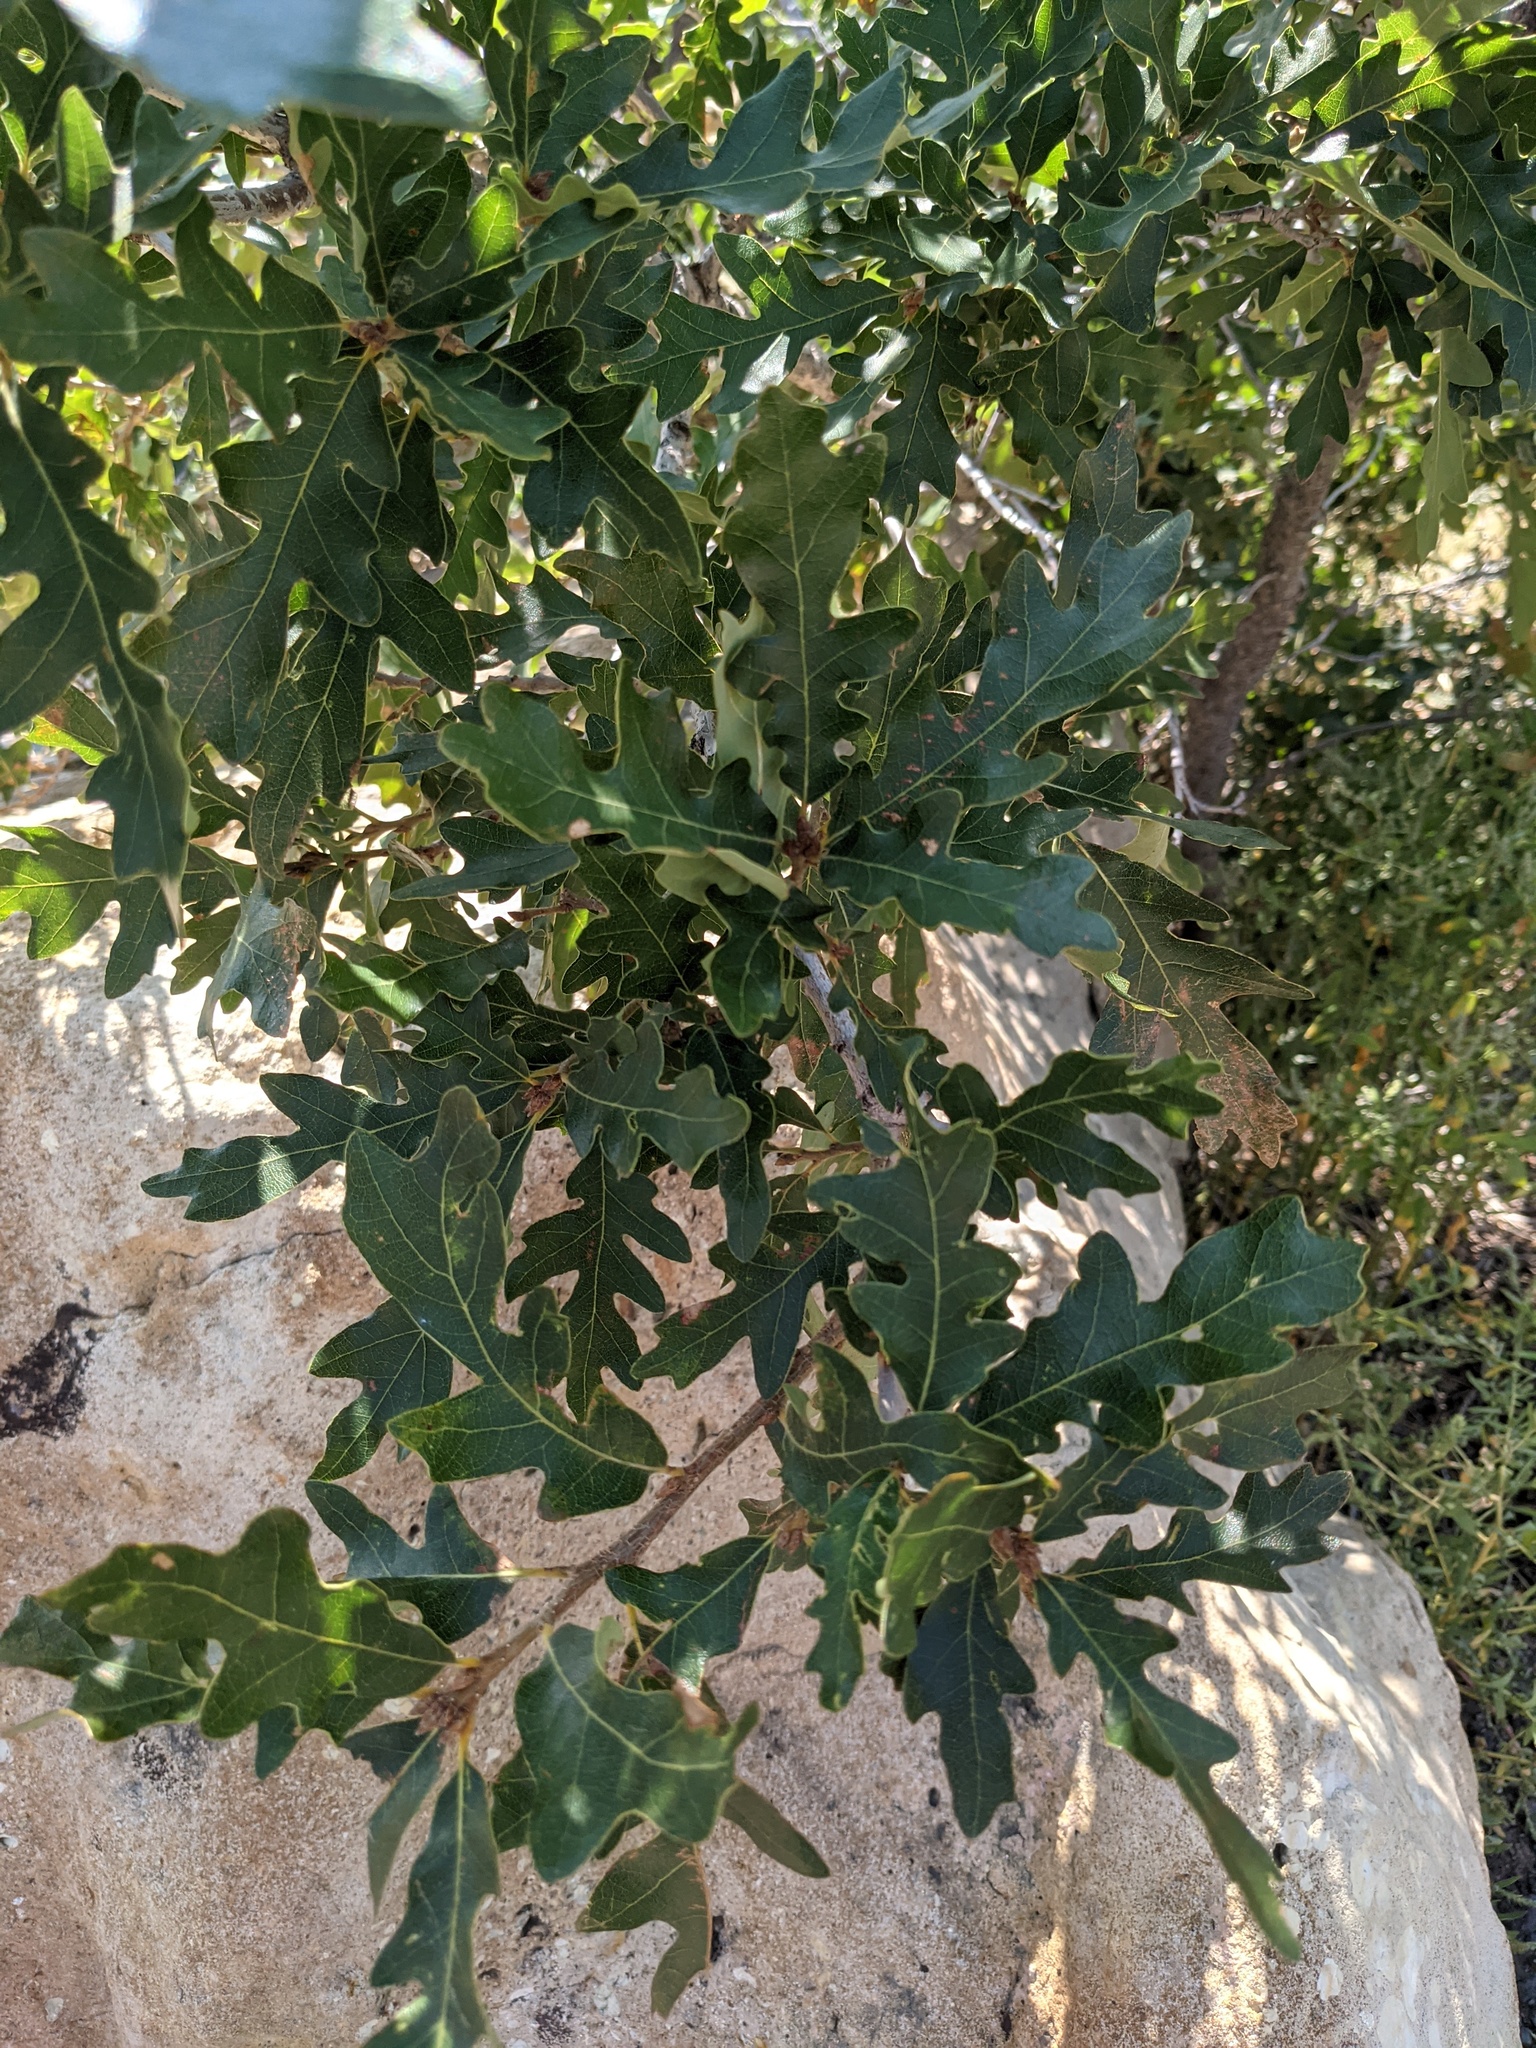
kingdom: Plantae
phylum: Tracheophyta
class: Magnoliopsida
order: Fagales
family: Fagaceae
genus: Quercus
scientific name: Quercus gambelii
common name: Gambel oak
